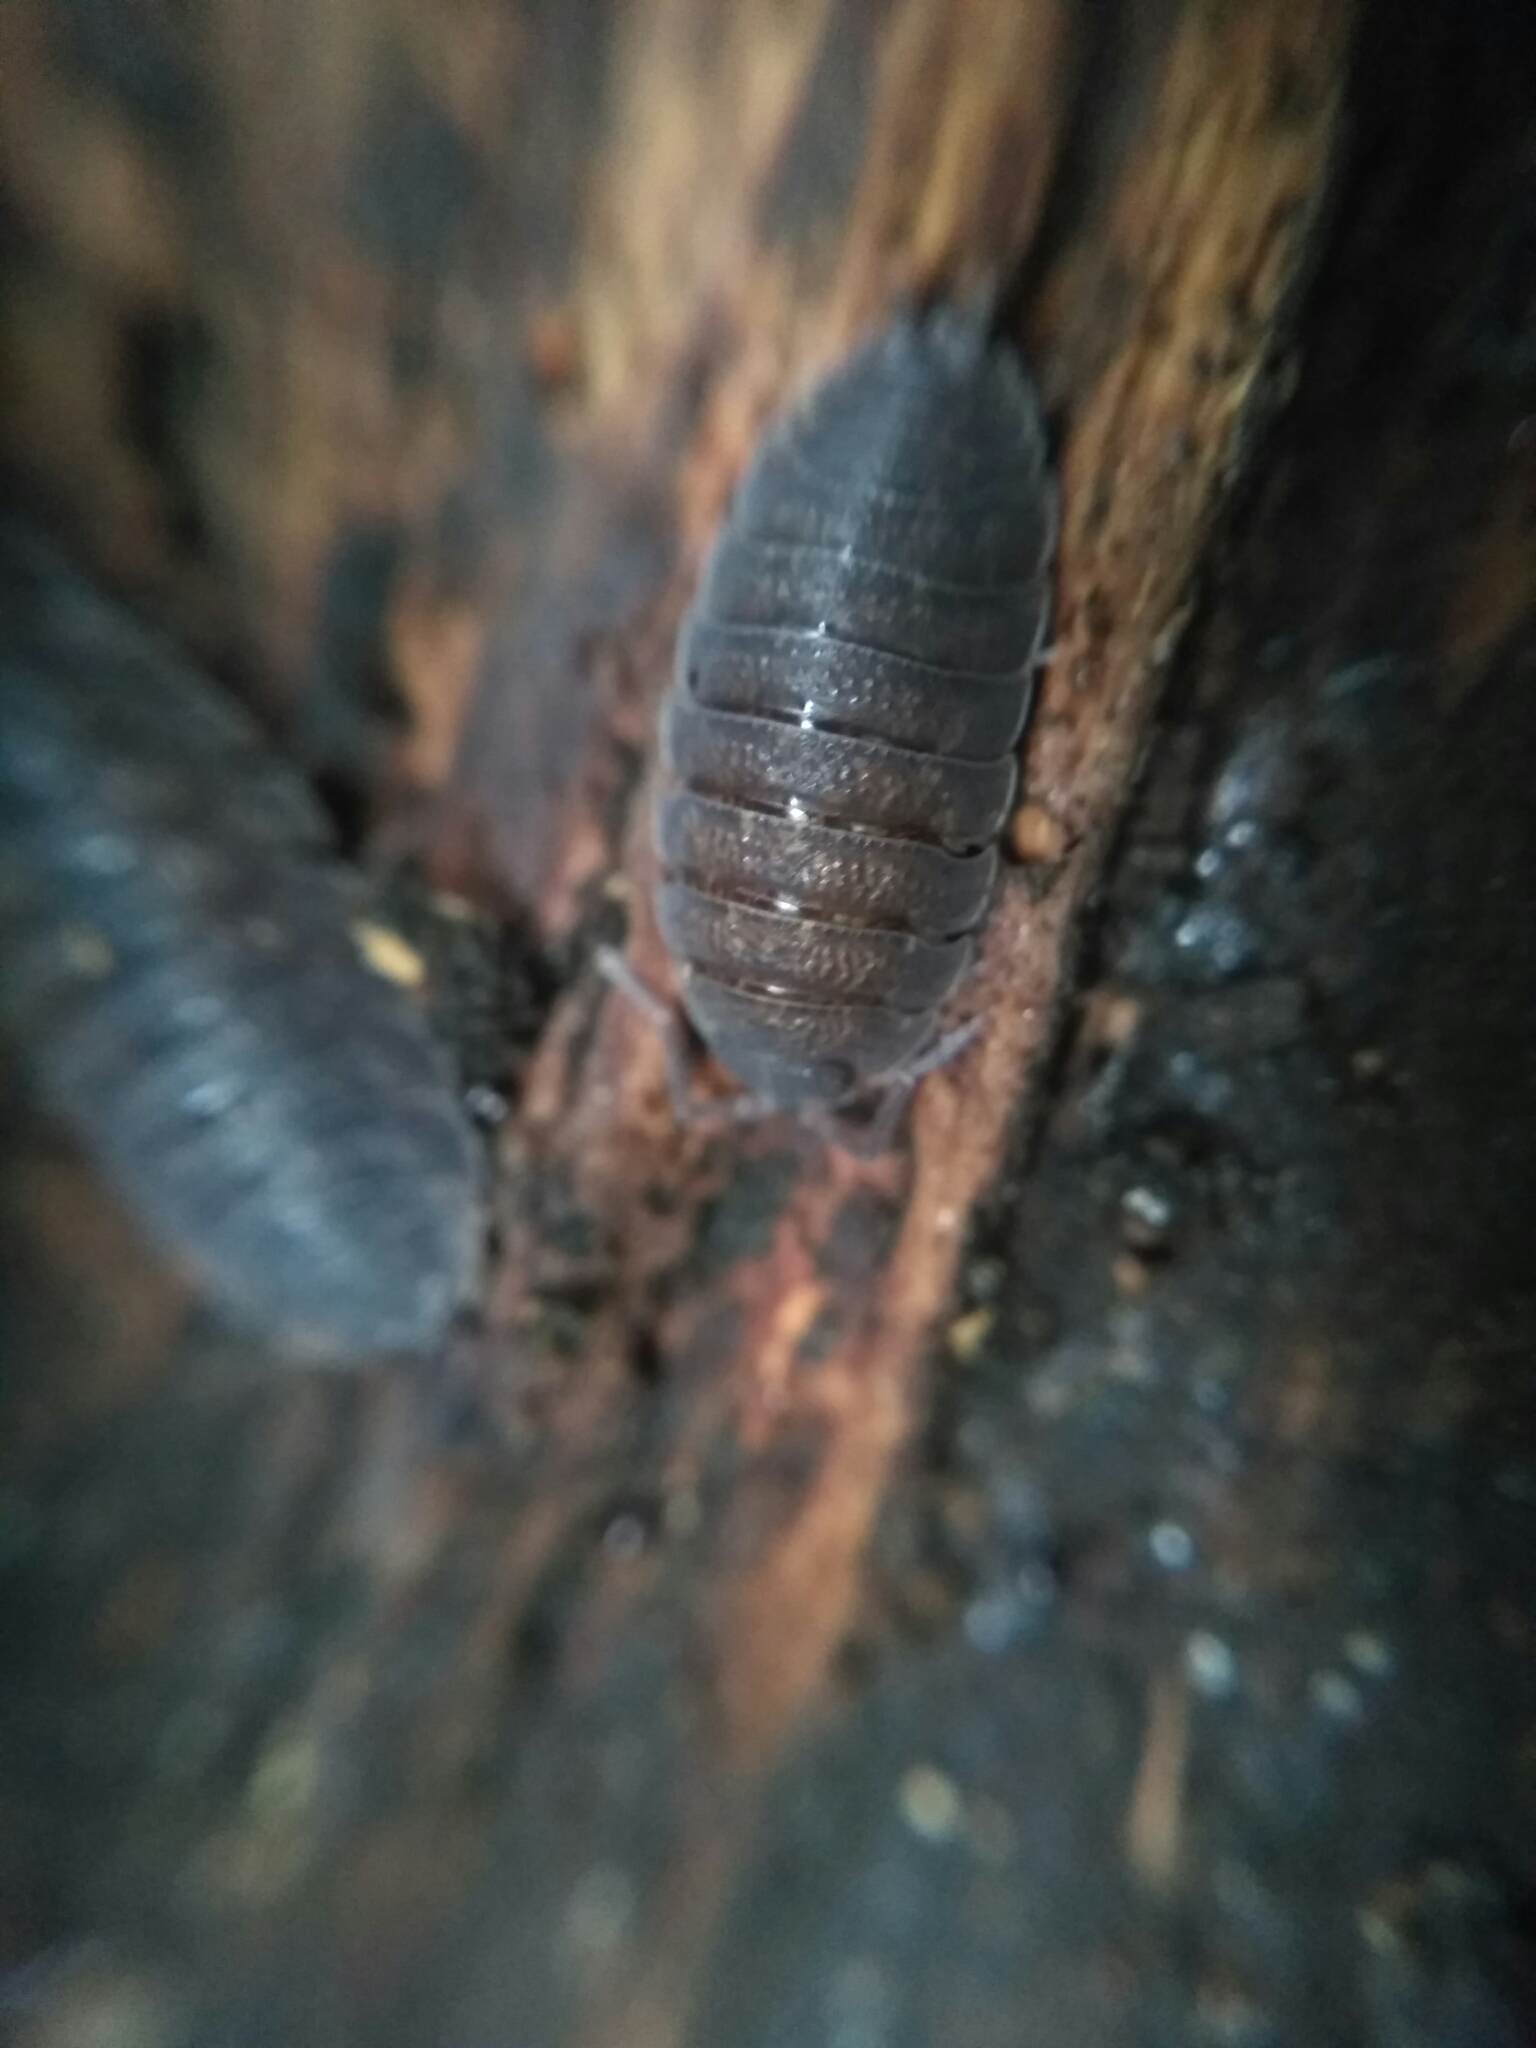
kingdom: Animalia
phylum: Arthropoda
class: Malacostraca
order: Isopoda
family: Porcellionidae
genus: Porcellio
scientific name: Porcellio scaber
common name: Common rough woodlouse
